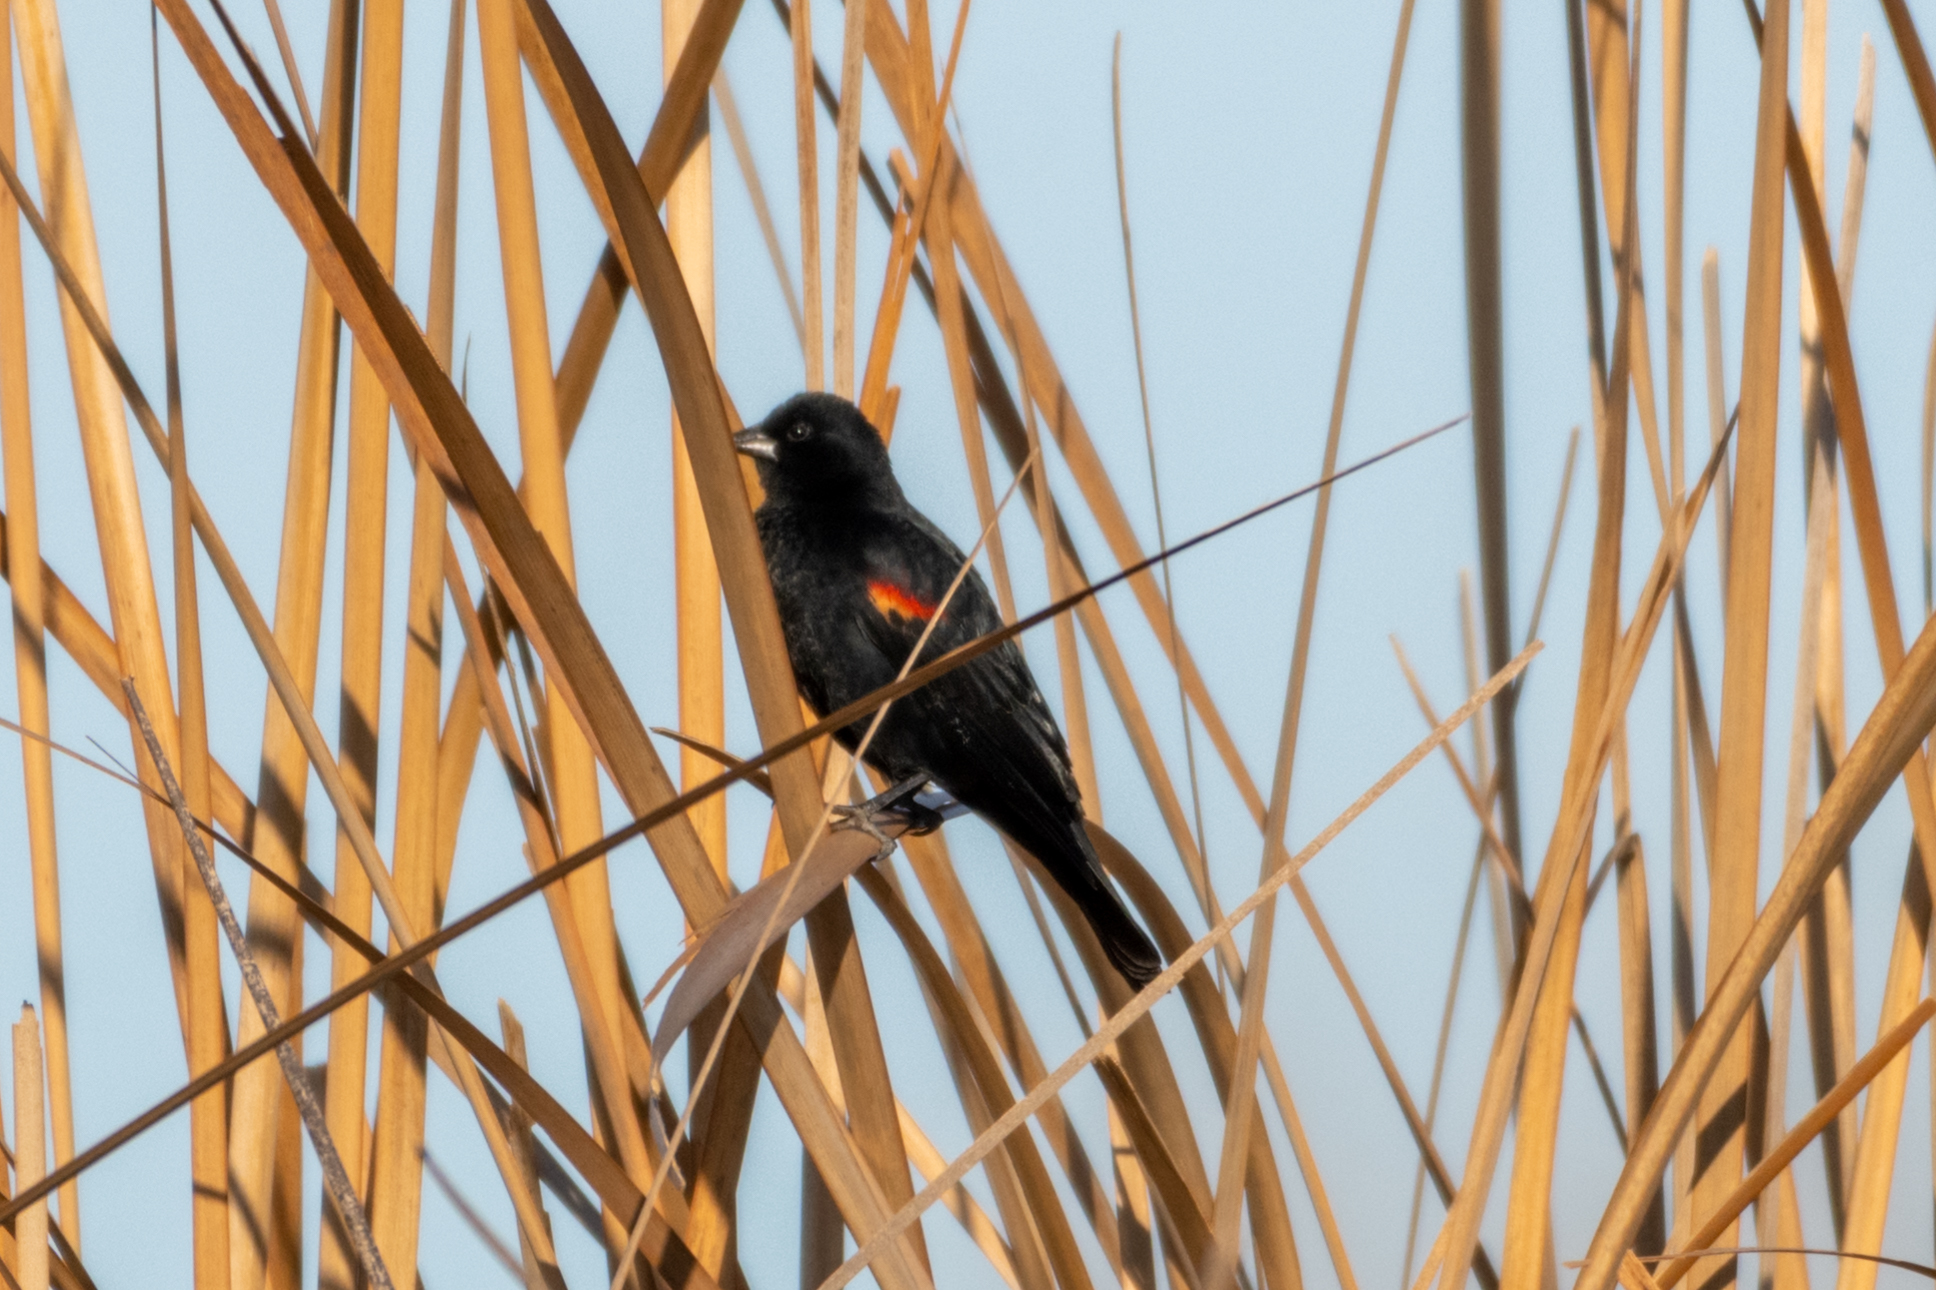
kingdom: Animalia
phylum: Chordata
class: Aves
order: Passeriformes
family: Icteridae
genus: Agelaius
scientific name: Agelaius phoeniceus
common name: Red-winged blackbird
